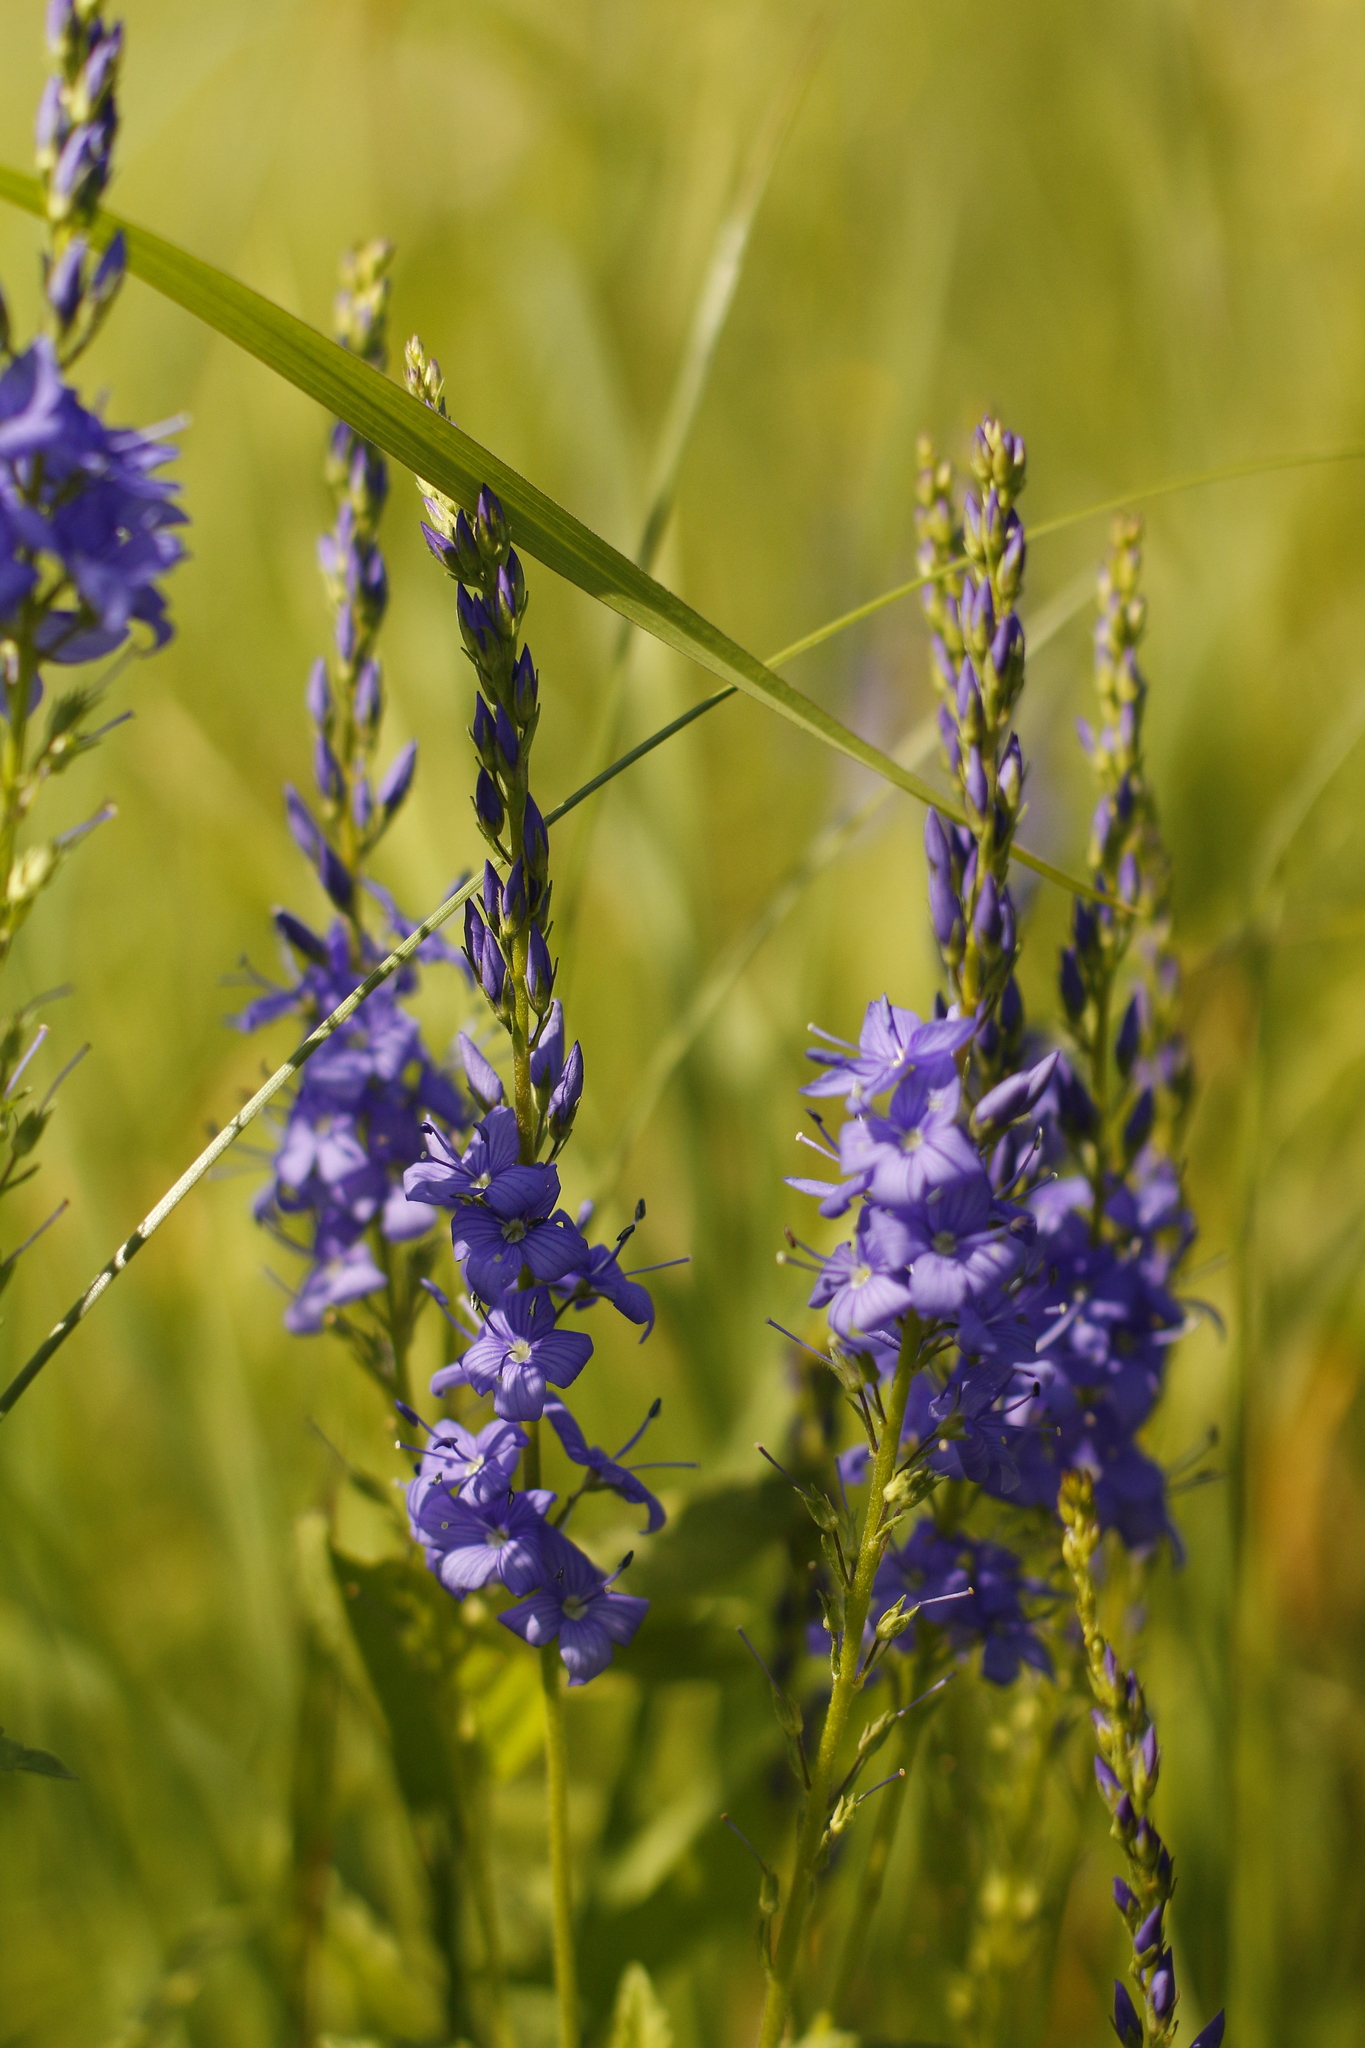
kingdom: Plantae
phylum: Tracheophyta
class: Magnoliopsida
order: Lamiales
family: Plantaginaceae
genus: Veronica
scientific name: Veronica teucrium
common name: Large speedwell
